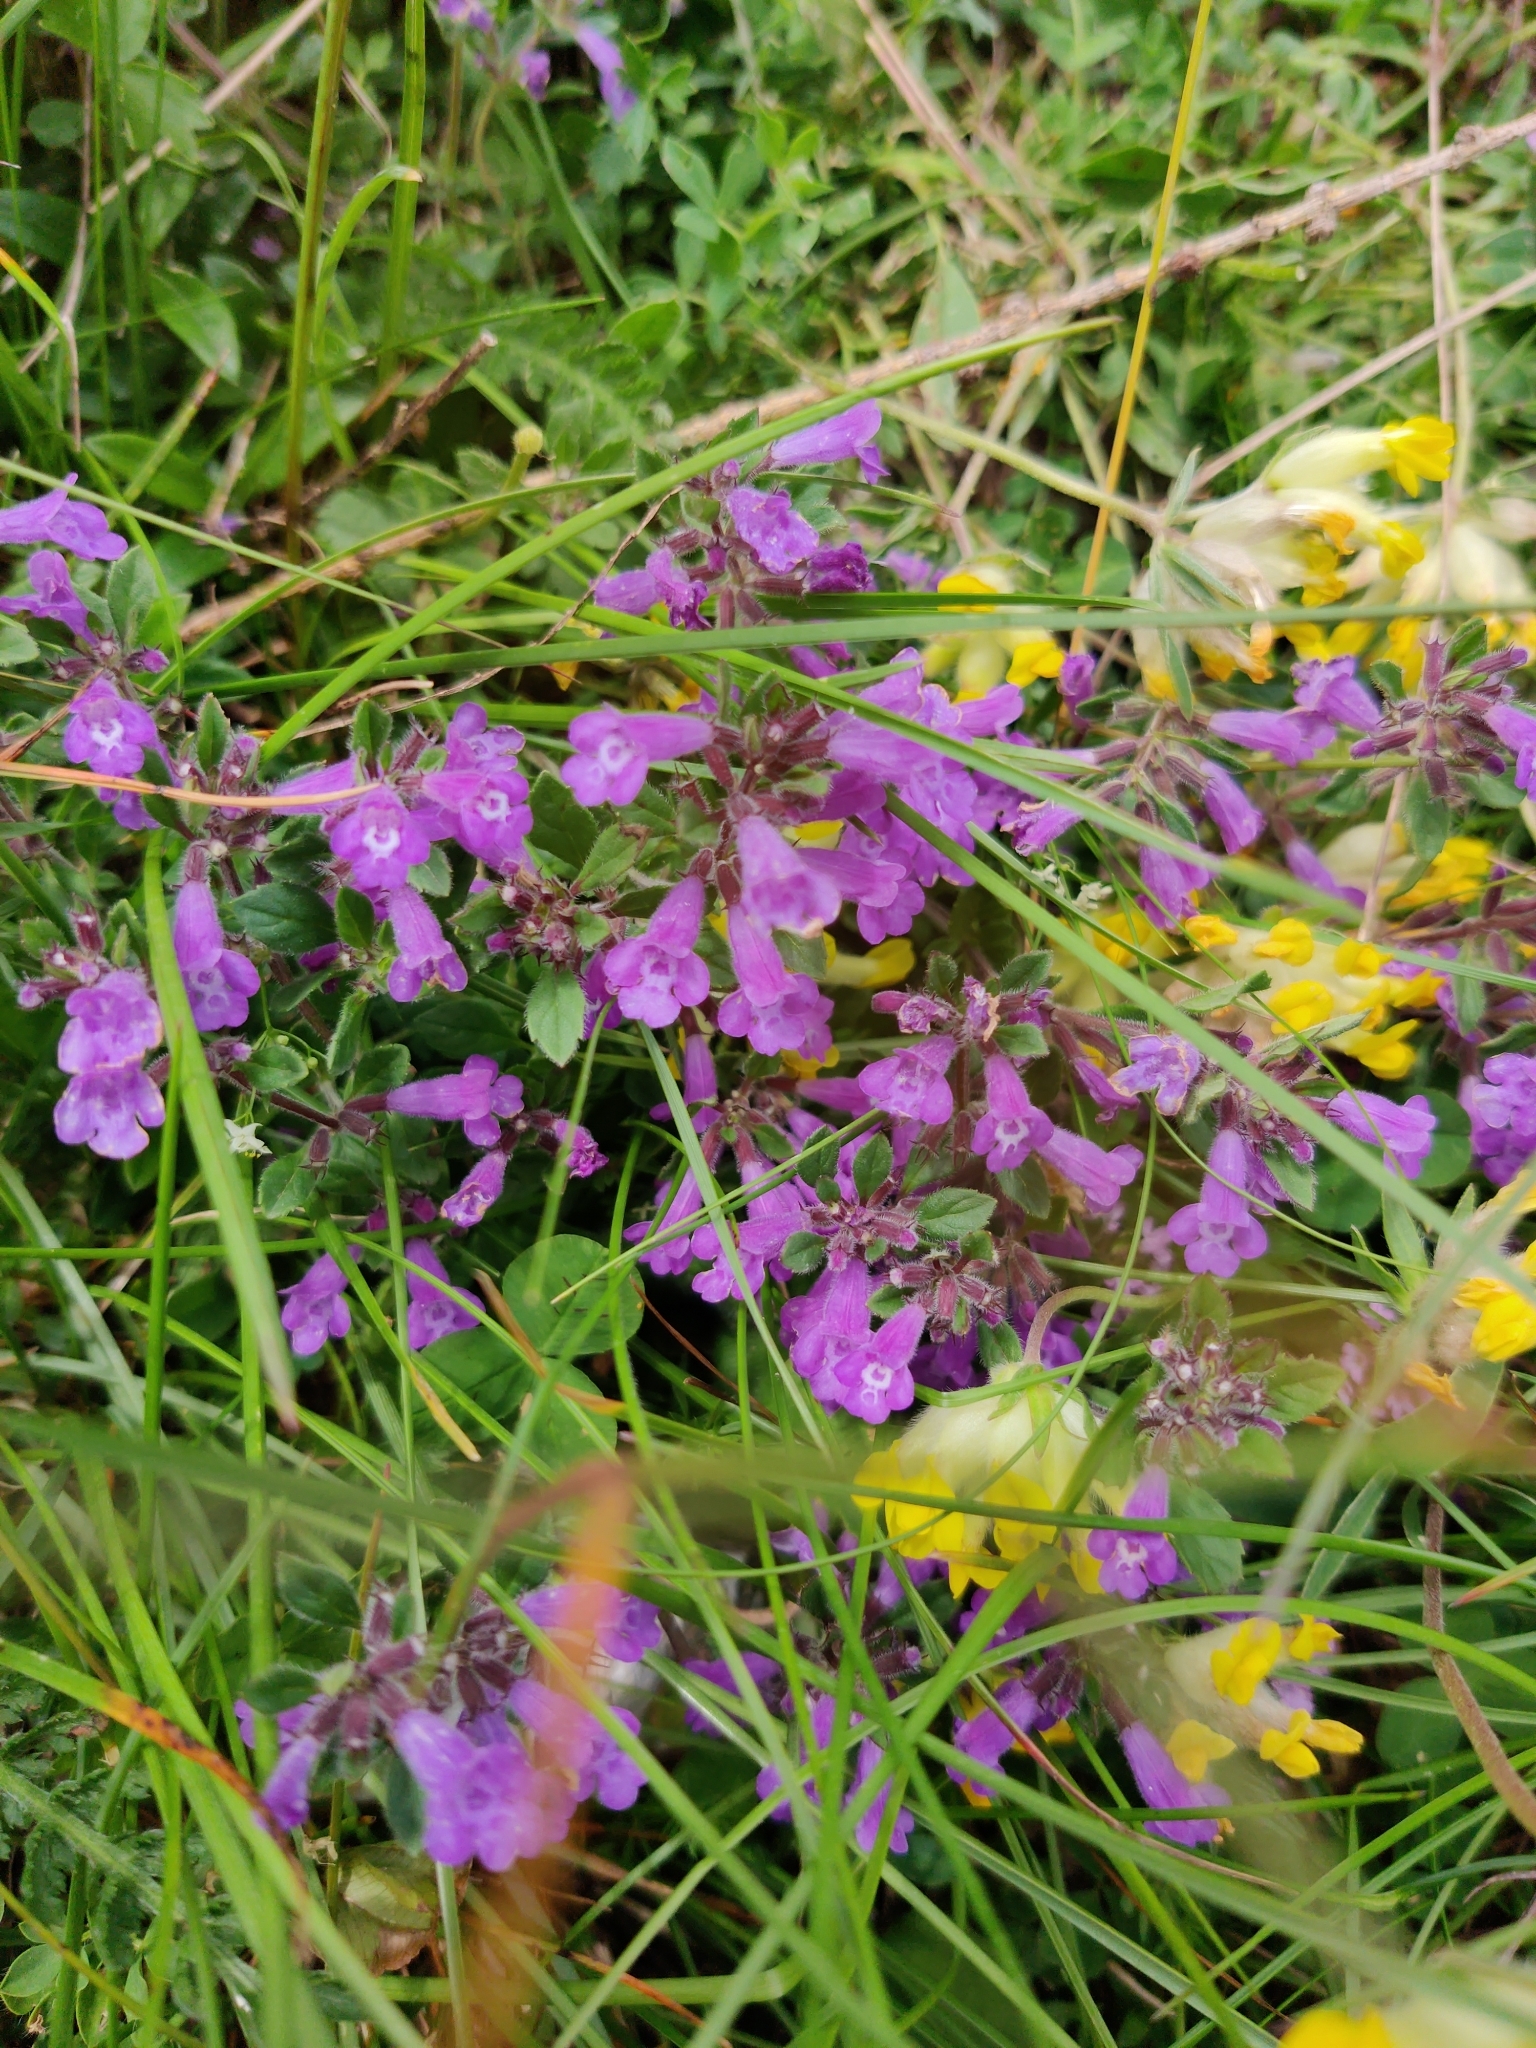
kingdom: Plantae
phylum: Tracheophyta
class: Magnoliopsida
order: Lamiales
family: Lamiaceae
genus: Clinopodium
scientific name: Clinopodium alpinum
